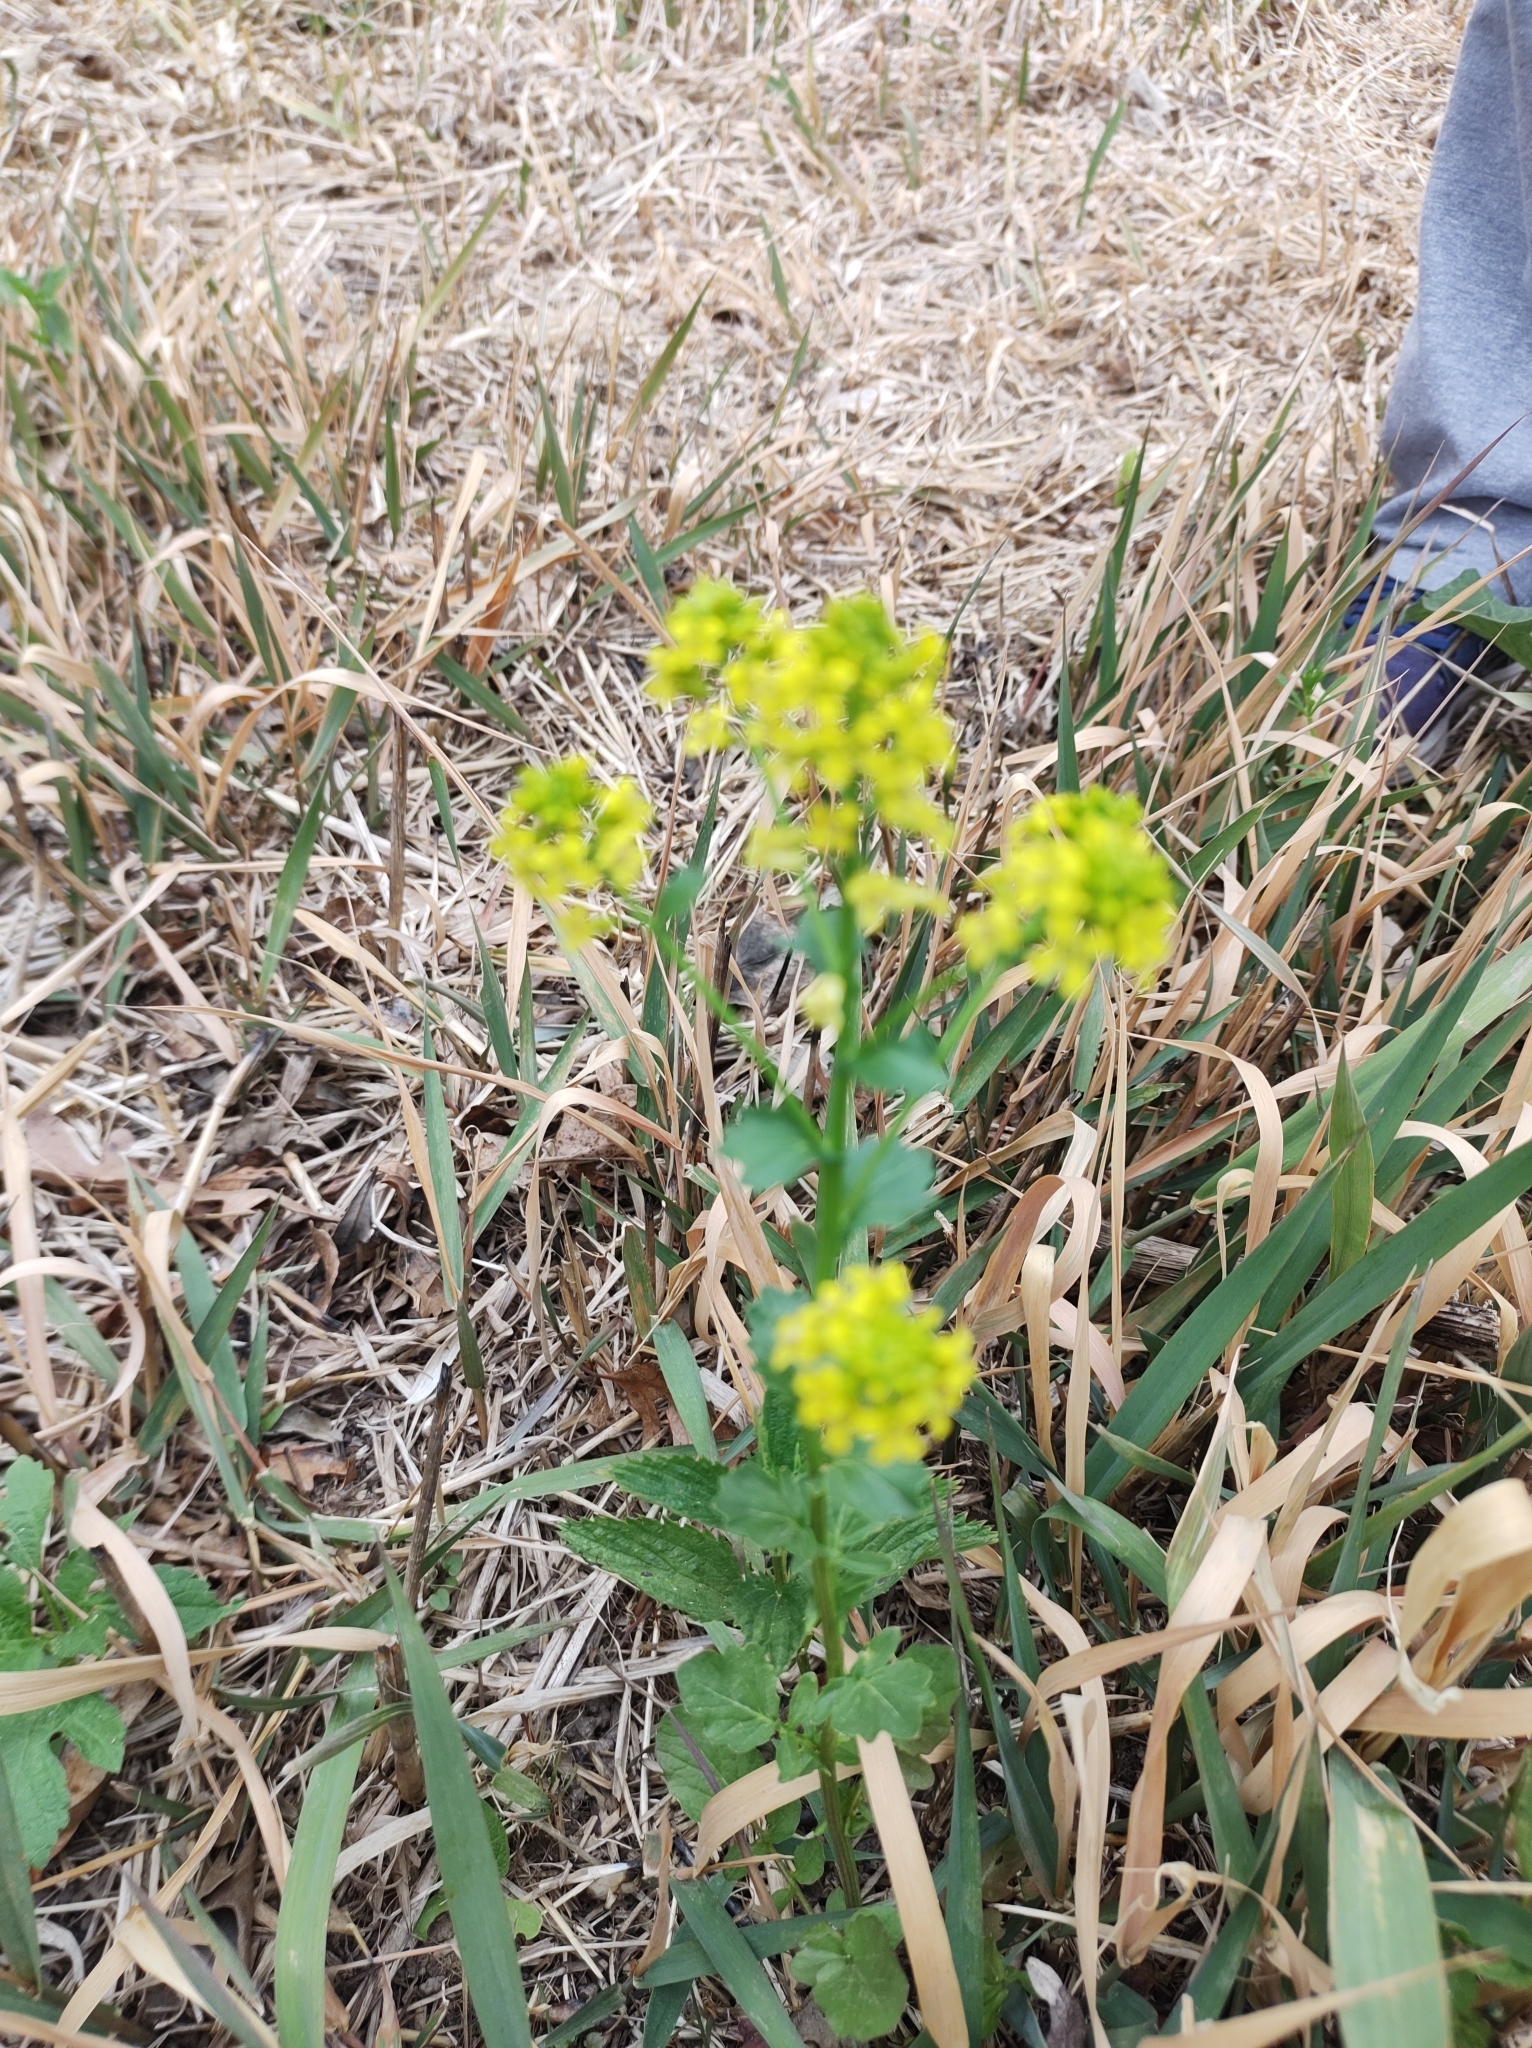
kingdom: Plantae
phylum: Tracheophyta
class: Magnoliopsida
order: Brassicales
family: Brassicaceae
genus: Barbarea
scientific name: Barbarea vulgaris
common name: Cressy-greens
